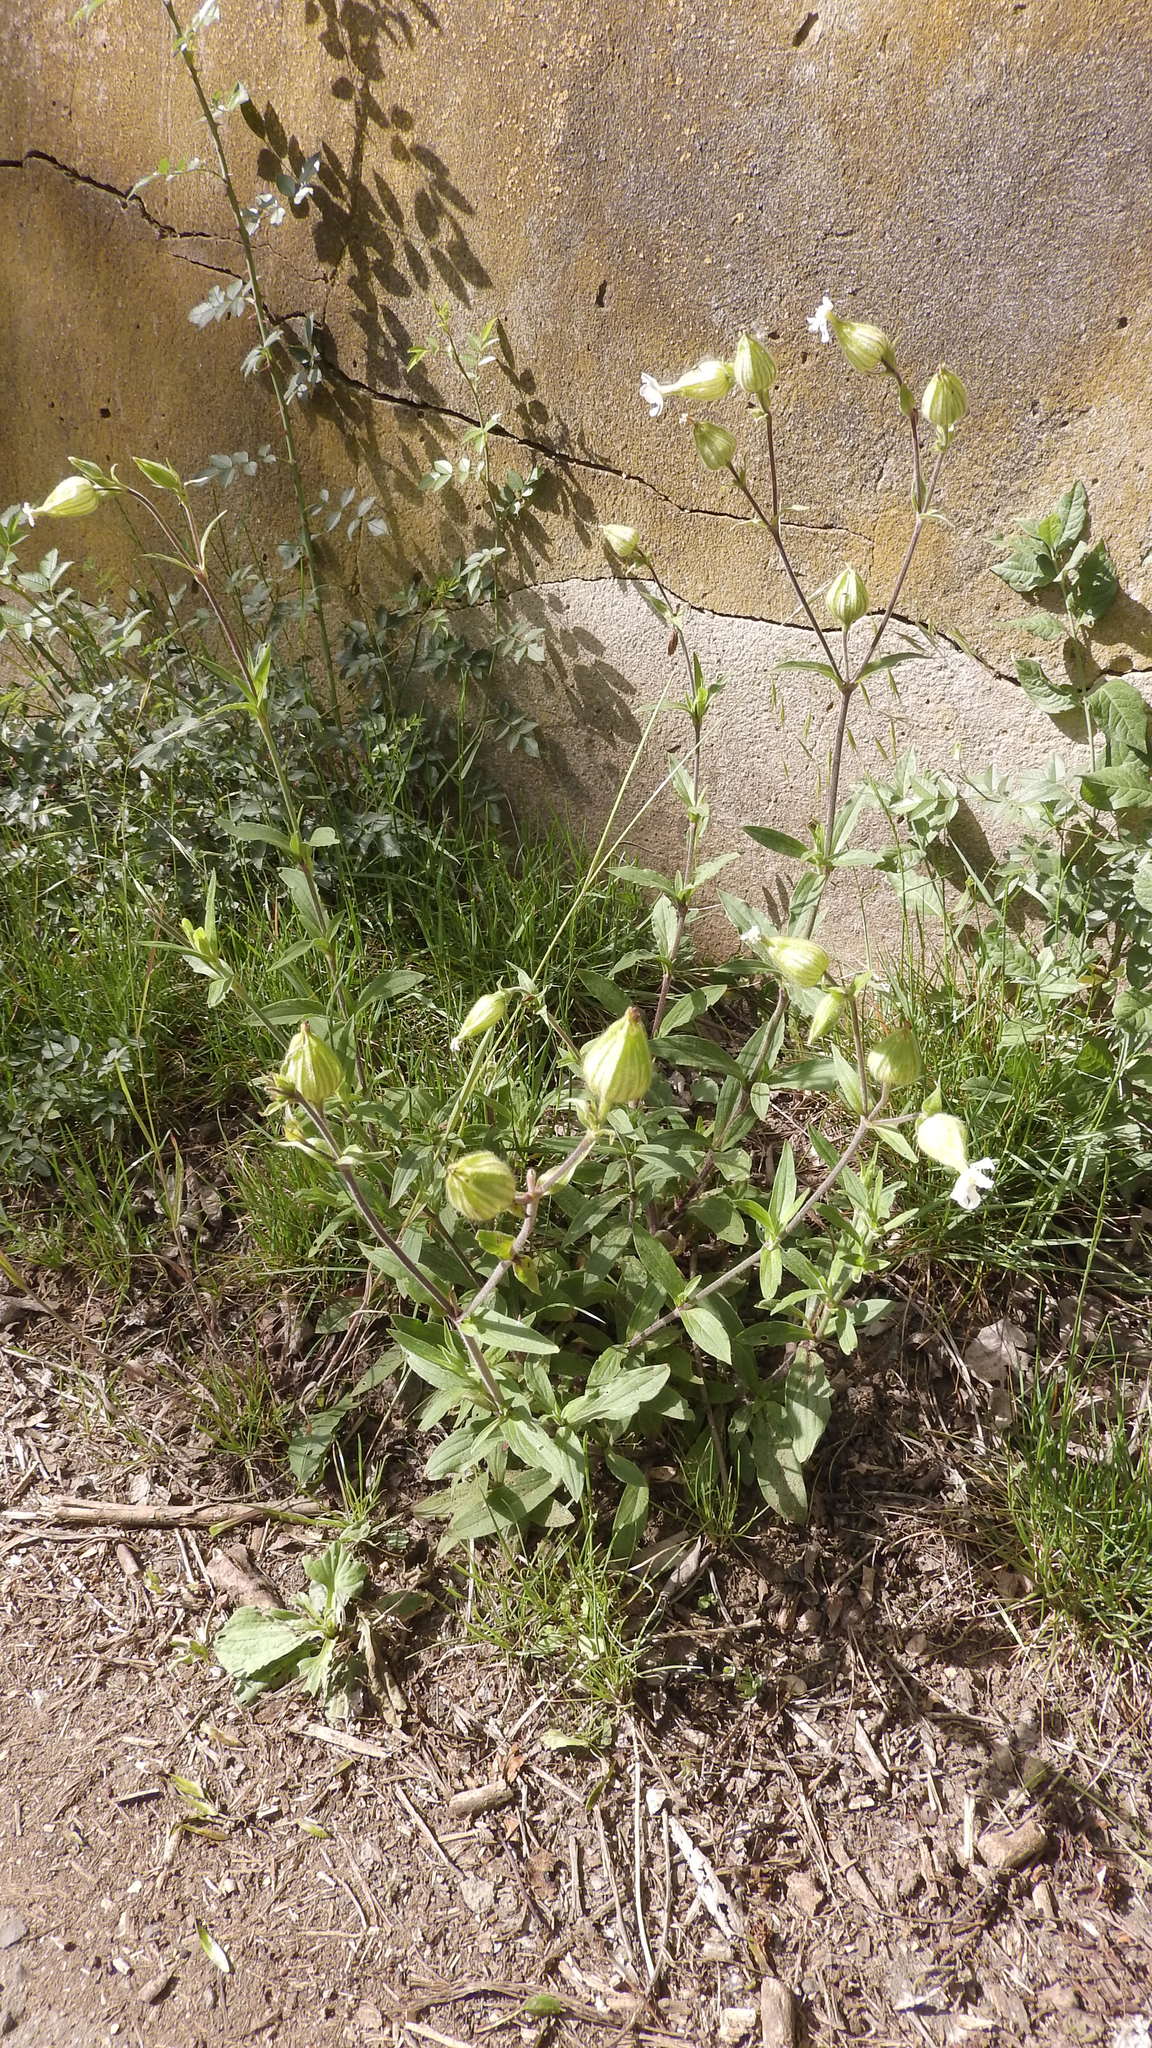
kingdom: Plantae
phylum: Tracheophyta
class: Magnoliopsida
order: Caryophyllales
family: Caryophyllaceae
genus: Silene
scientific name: Silene latifolia
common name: White campion
